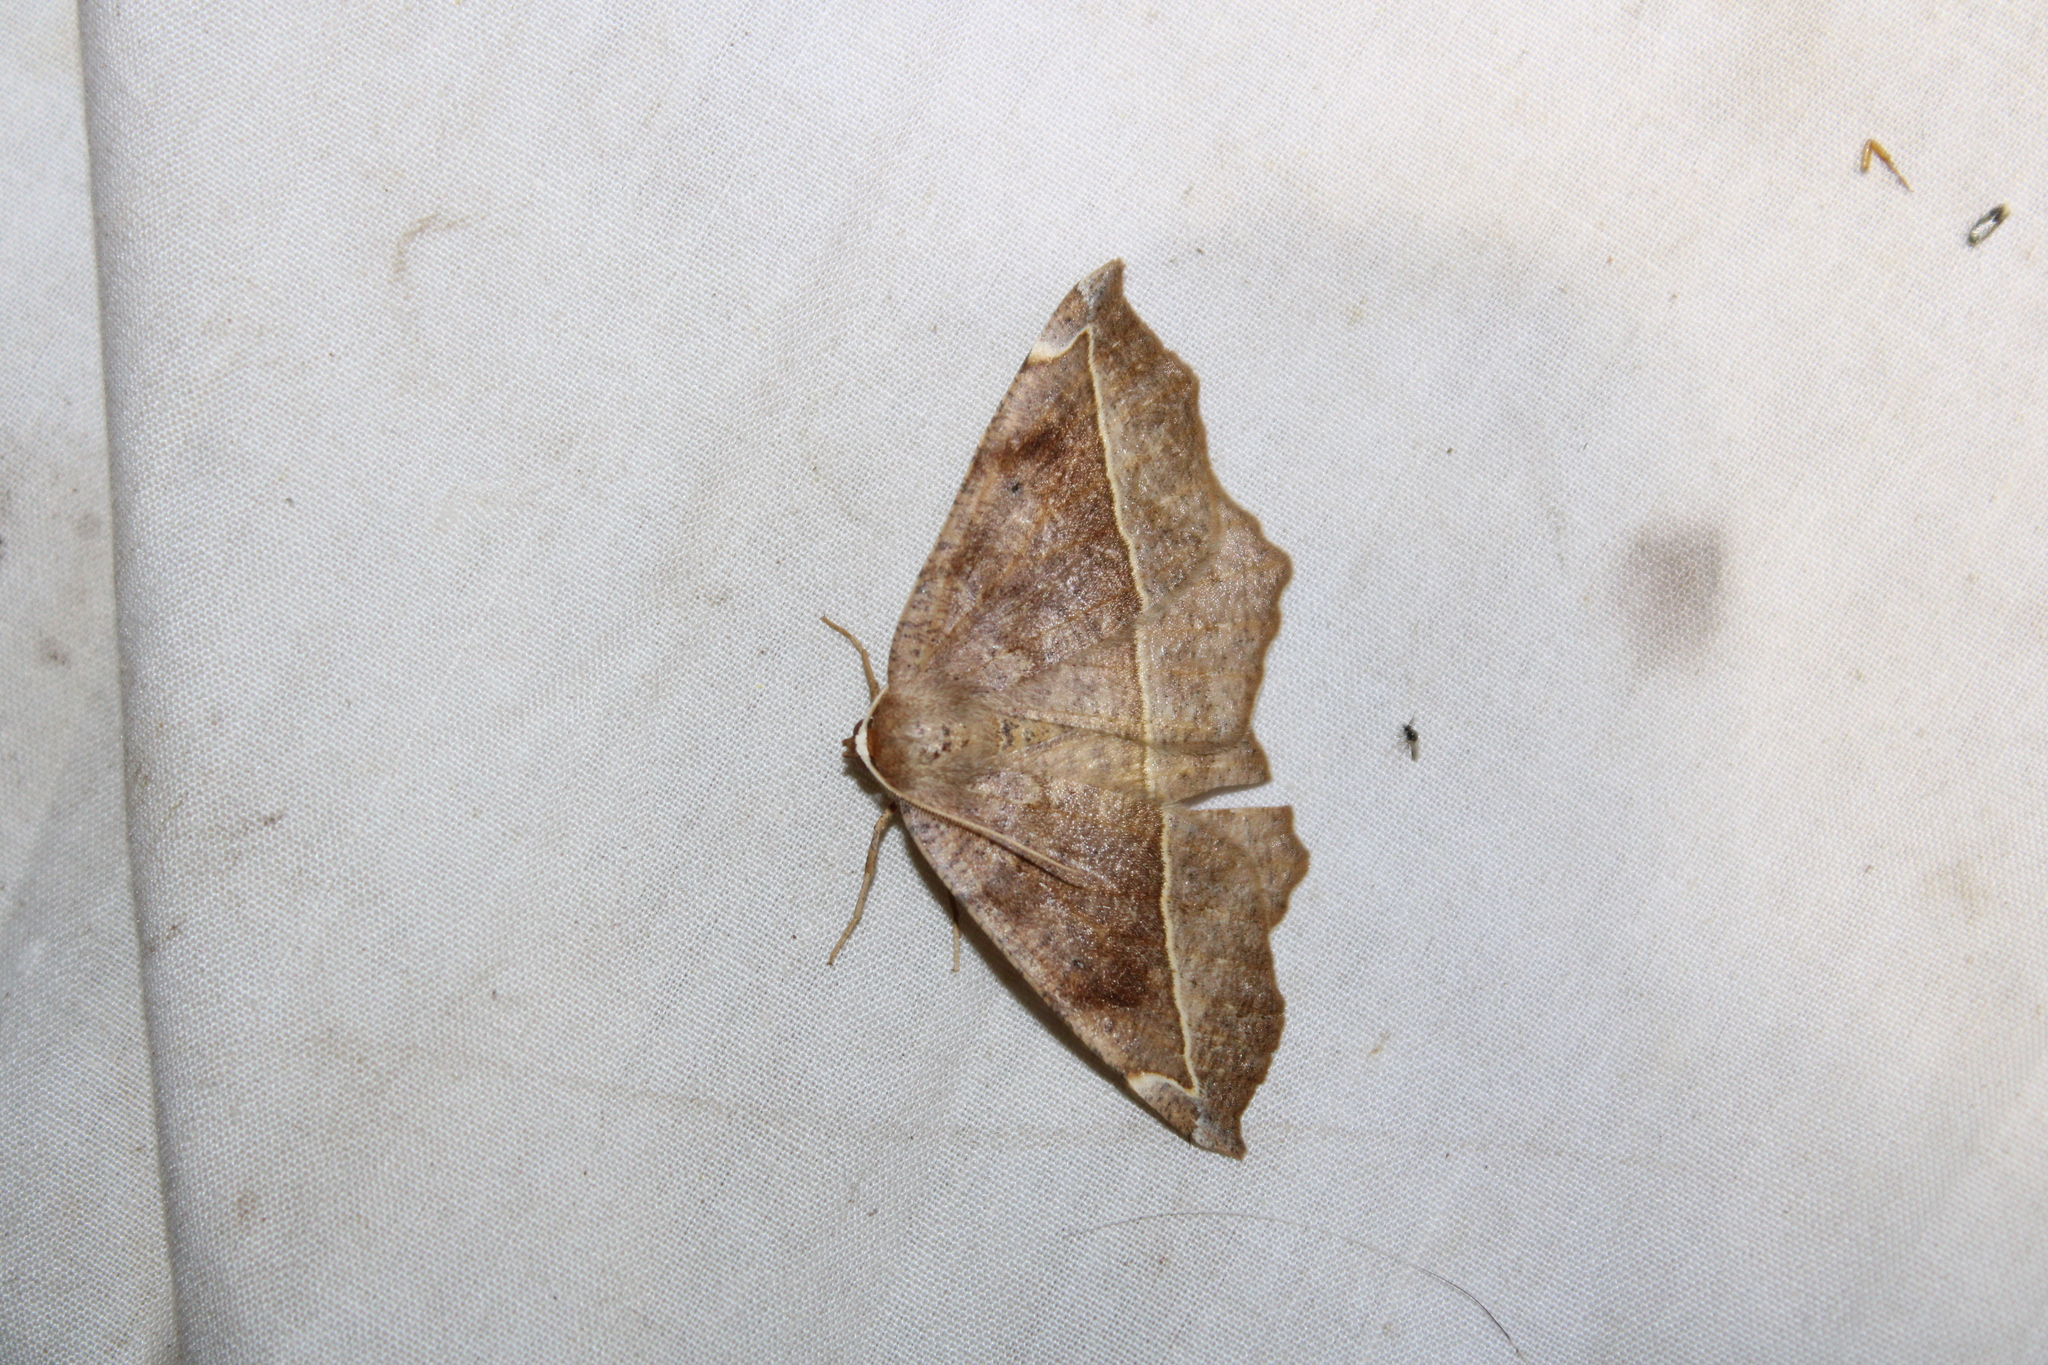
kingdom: Animalia
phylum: Arthropoda
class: Insecta
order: Lepidoptera
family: Geometridae
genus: Eutrapela
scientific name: Eutrapela clemataria
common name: Curved-toothed geometer
